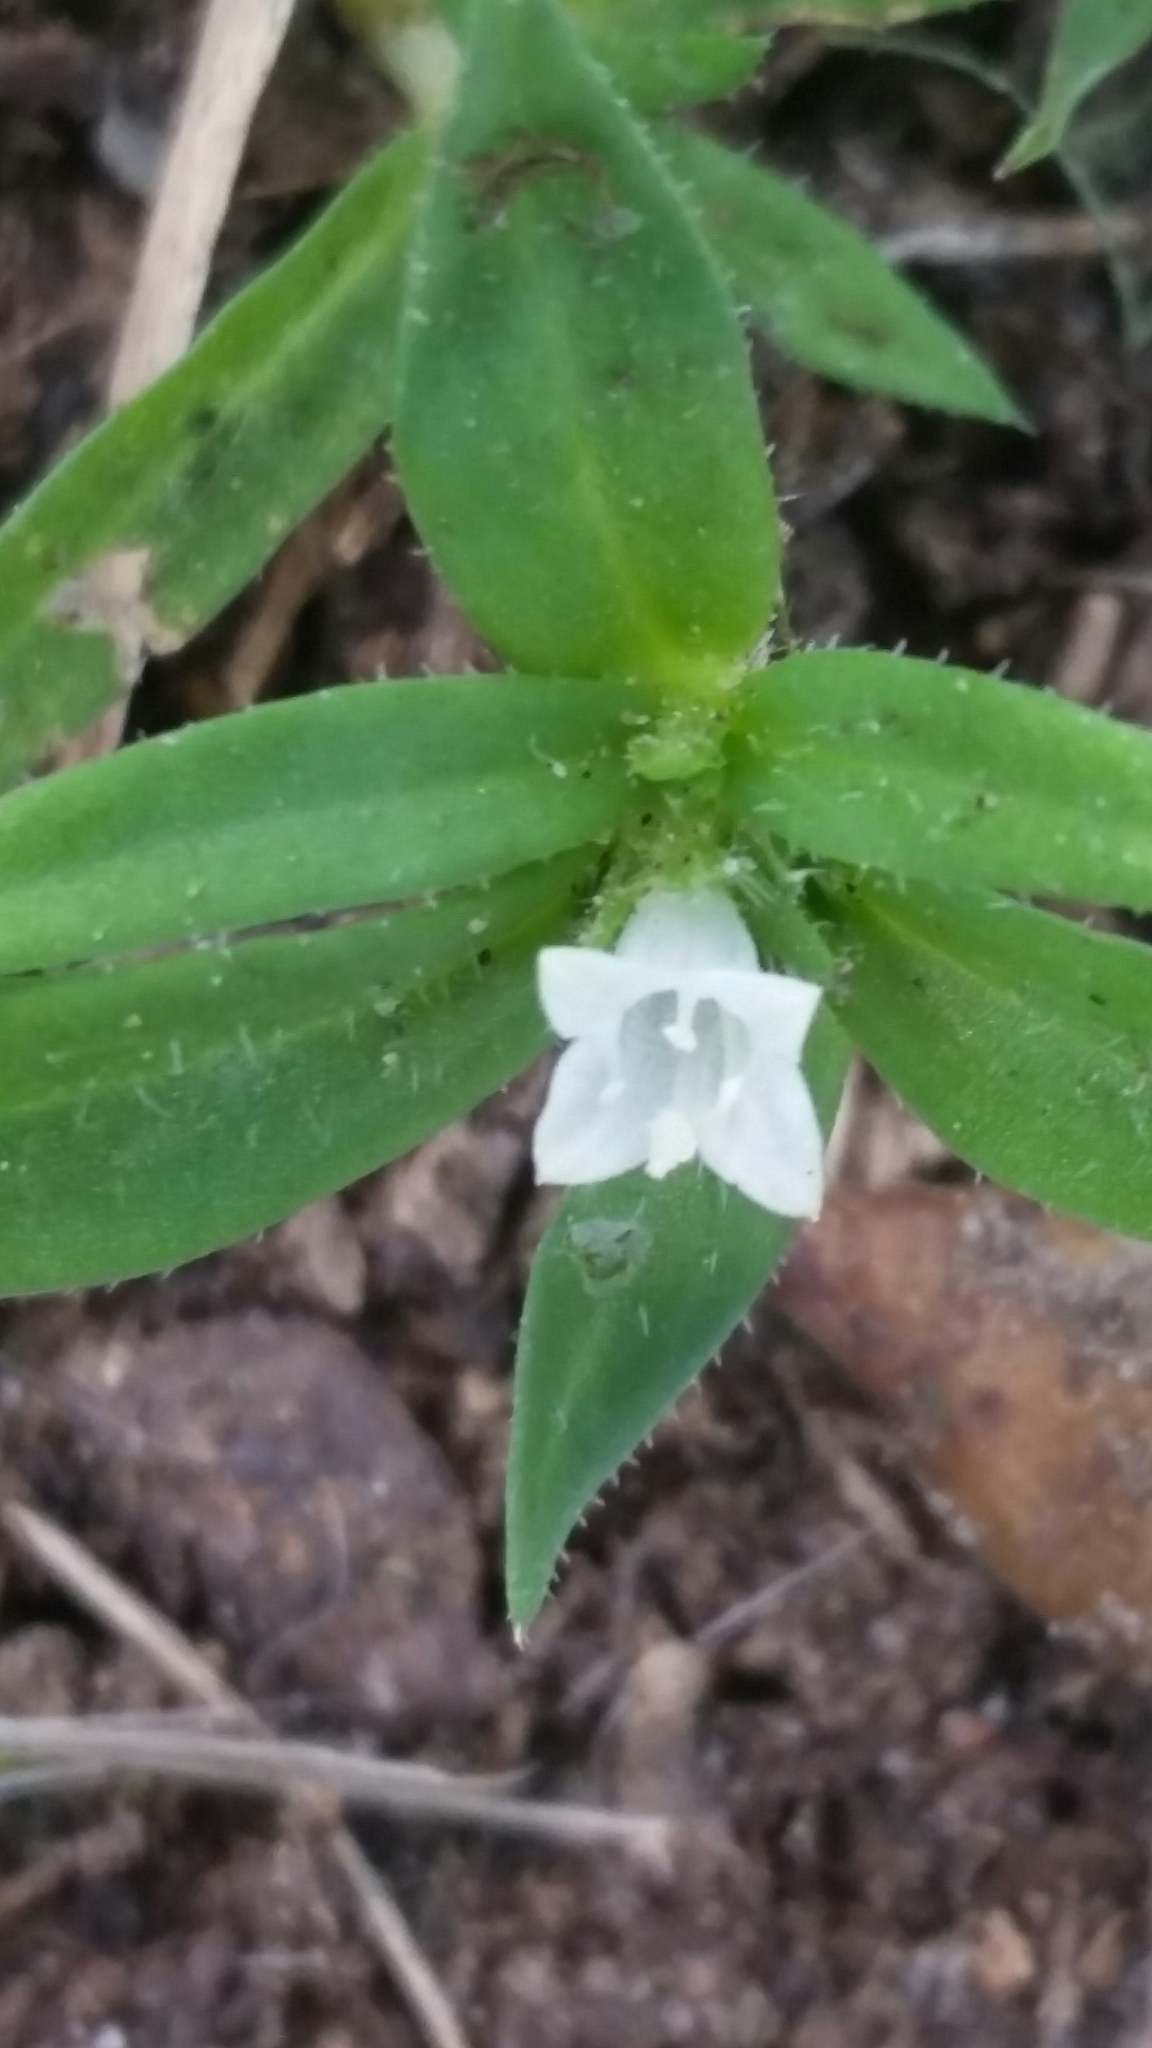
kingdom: Plantae
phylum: Tracheophyta
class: Magnoliopsida
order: Gentianales
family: Rubiaceae
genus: Hexasepalum
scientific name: Hexasepalum teres
